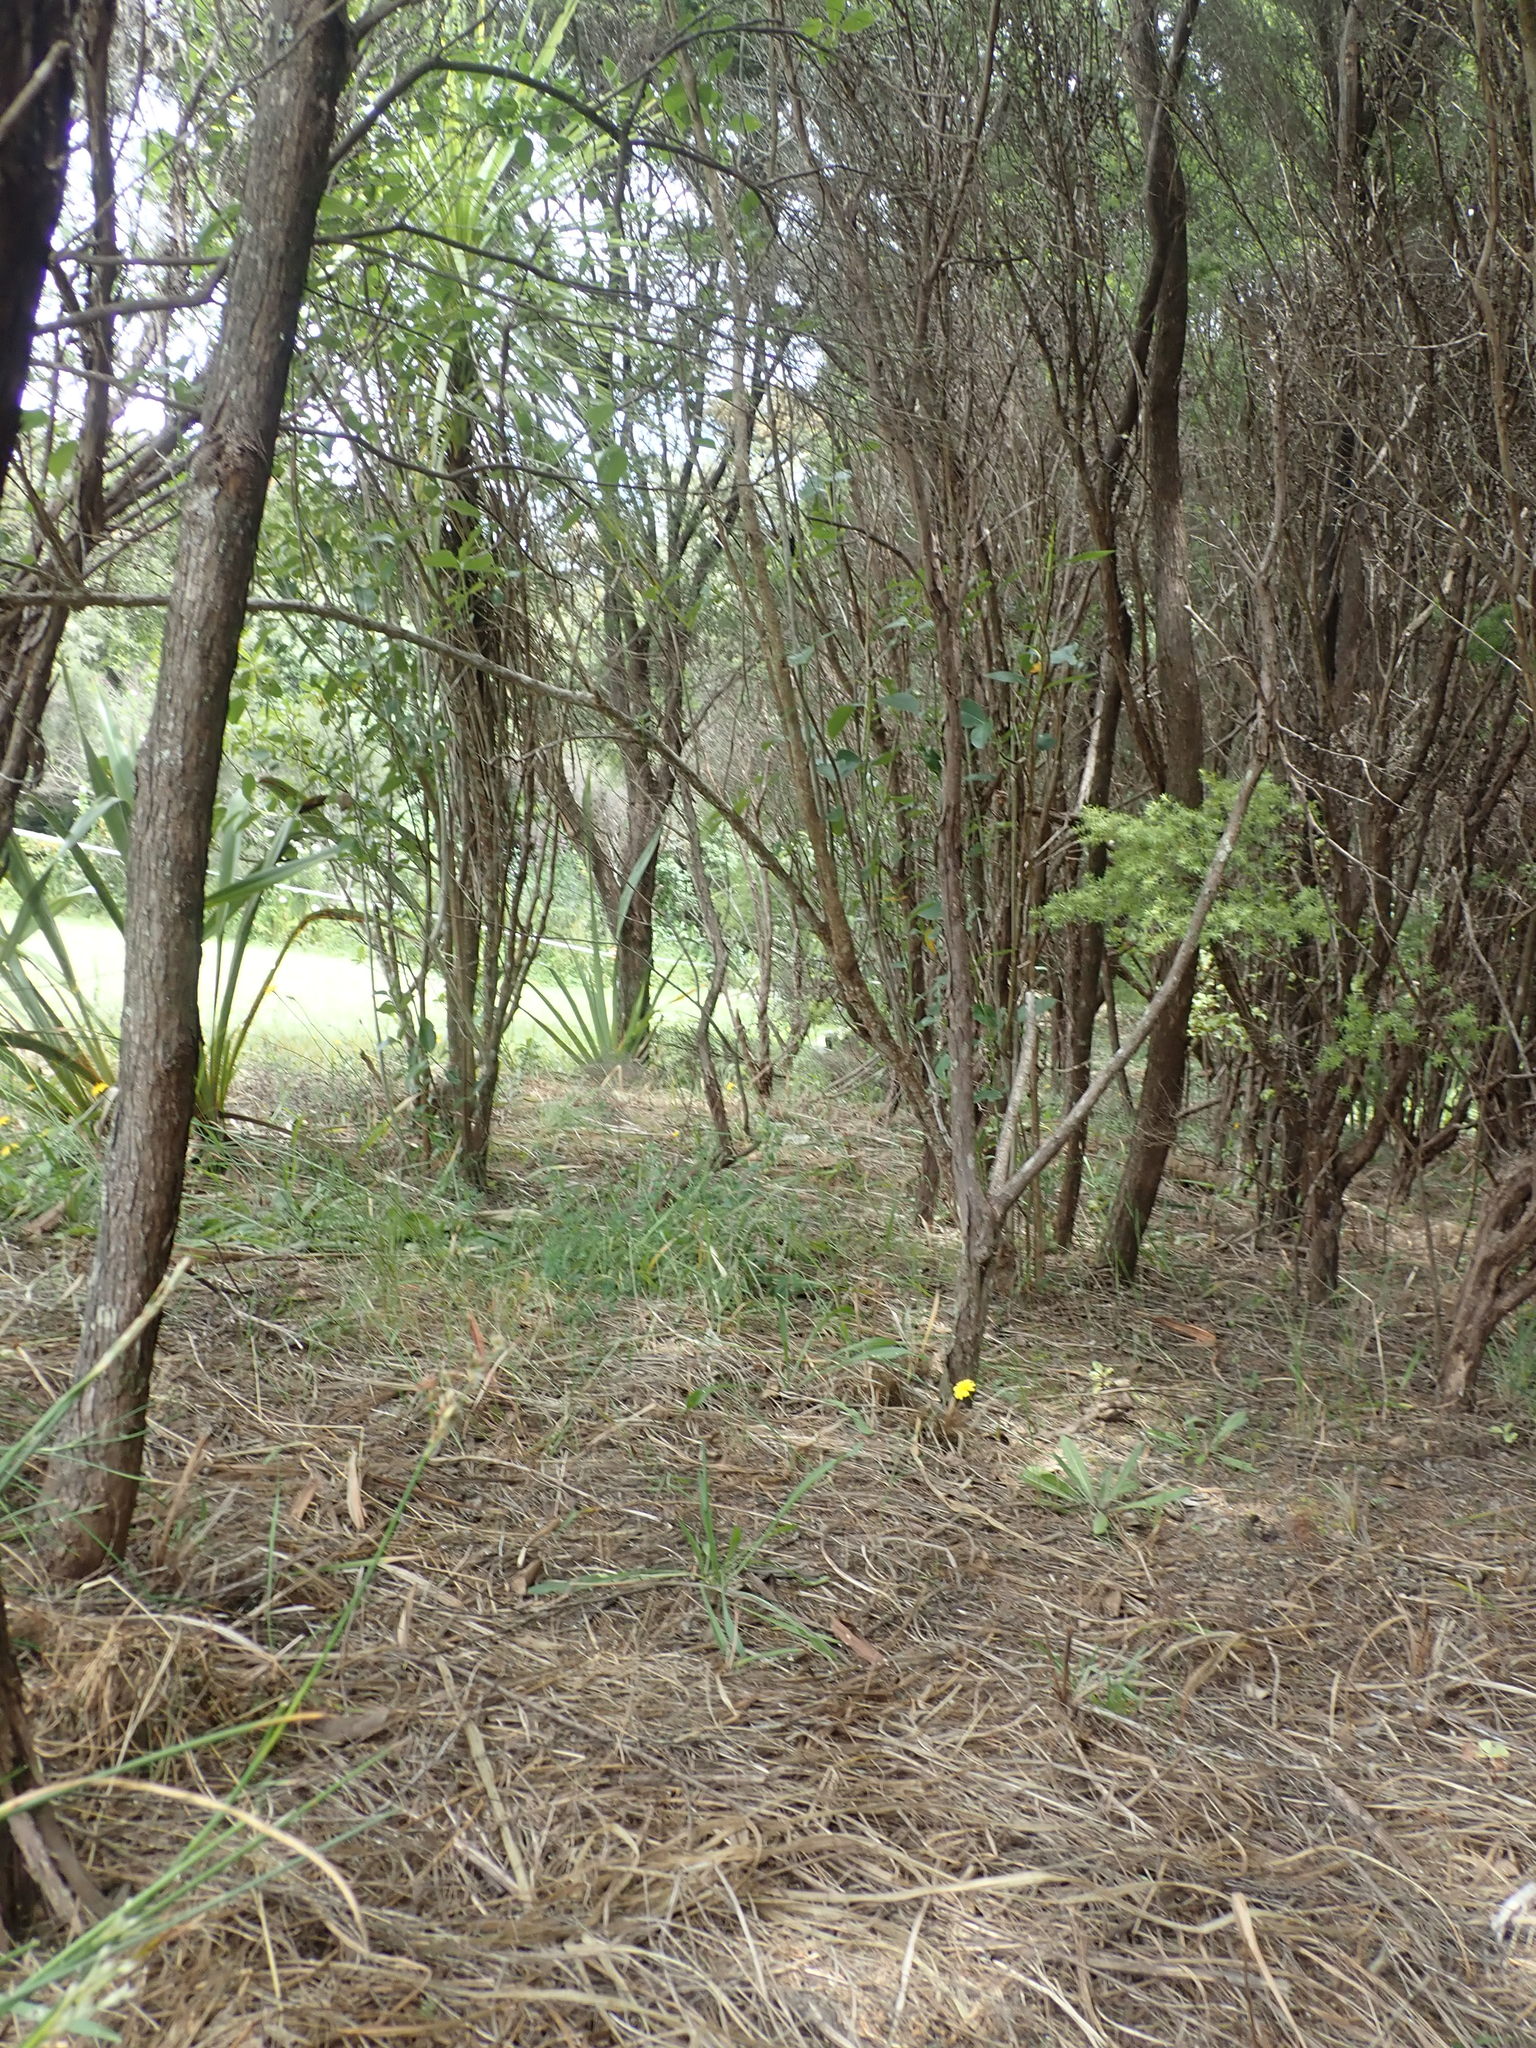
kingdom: Plantae
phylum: Tracheophyta
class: Liliopsida
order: Asparagales
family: Asparagaceae
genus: Cordyline
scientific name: Cordyline australis
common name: Cabbage-palm
